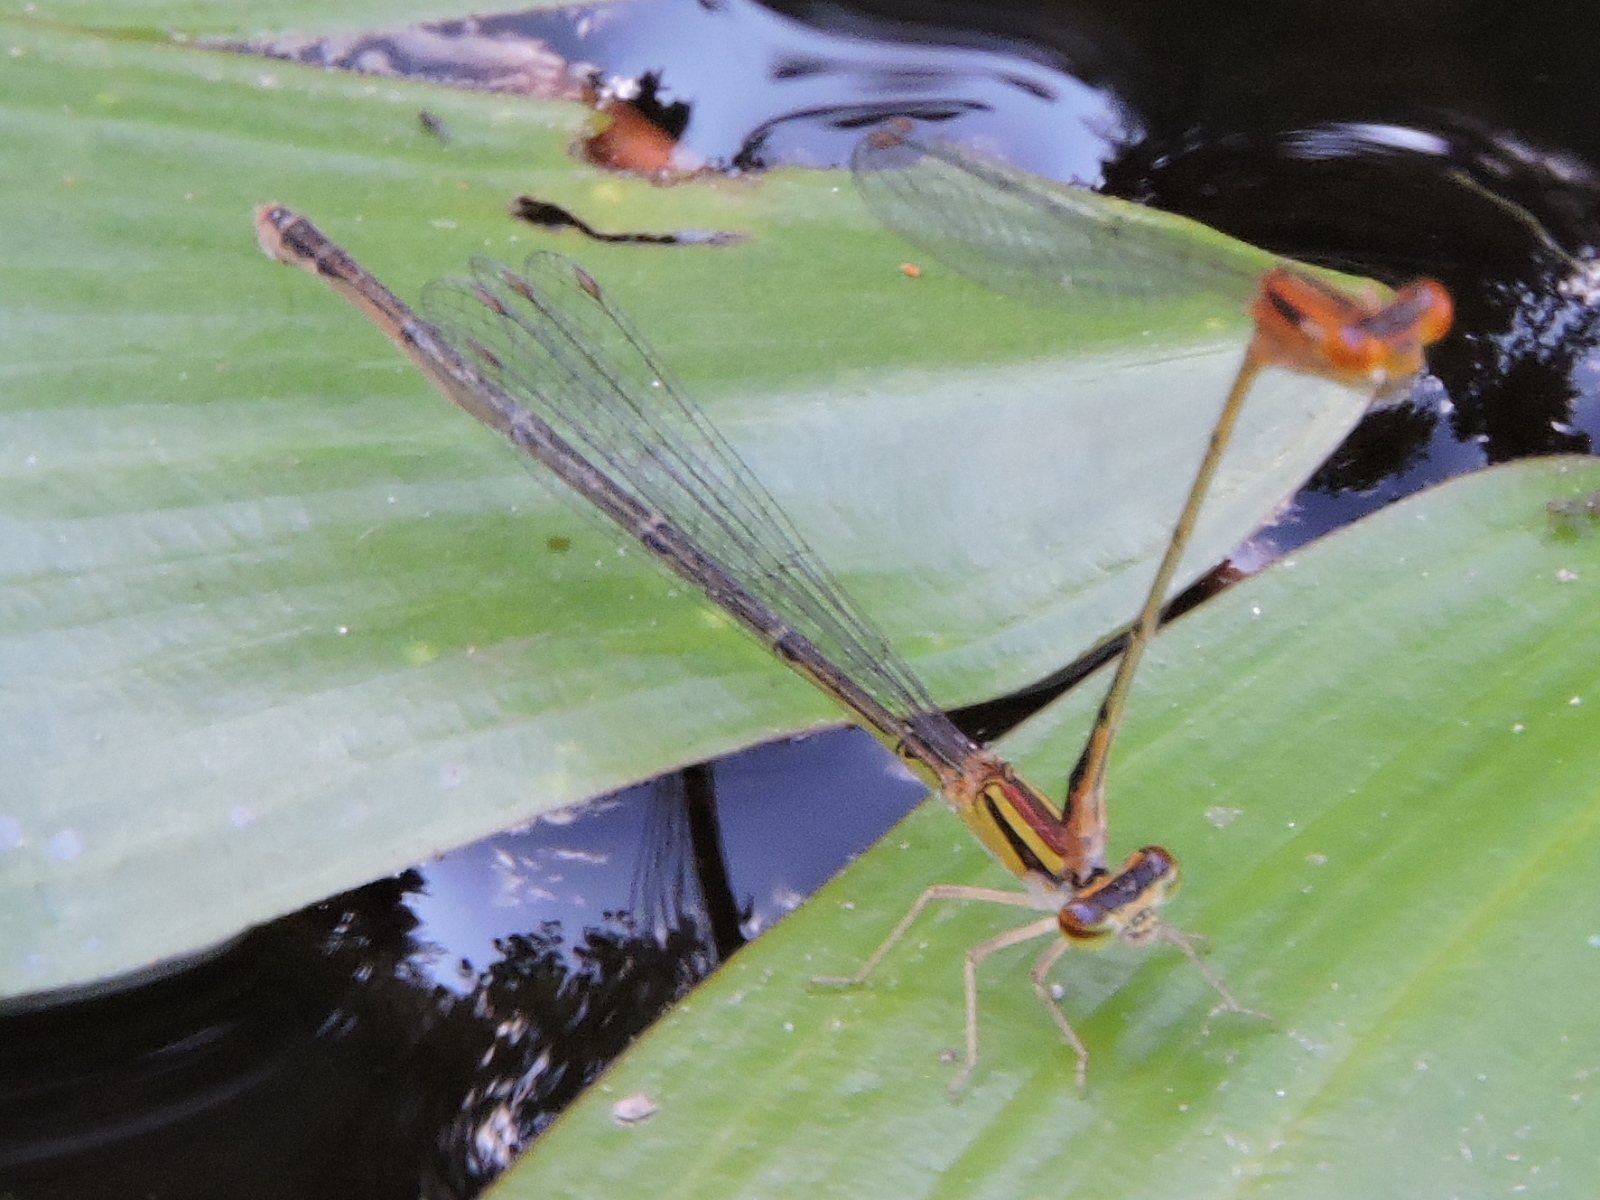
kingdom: Animalia
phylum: Arthropoda
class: Insecta
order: Odonata
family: Coenagrionidae
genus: Enallagma
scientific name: Enallagma signatum
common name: Orange bluet
